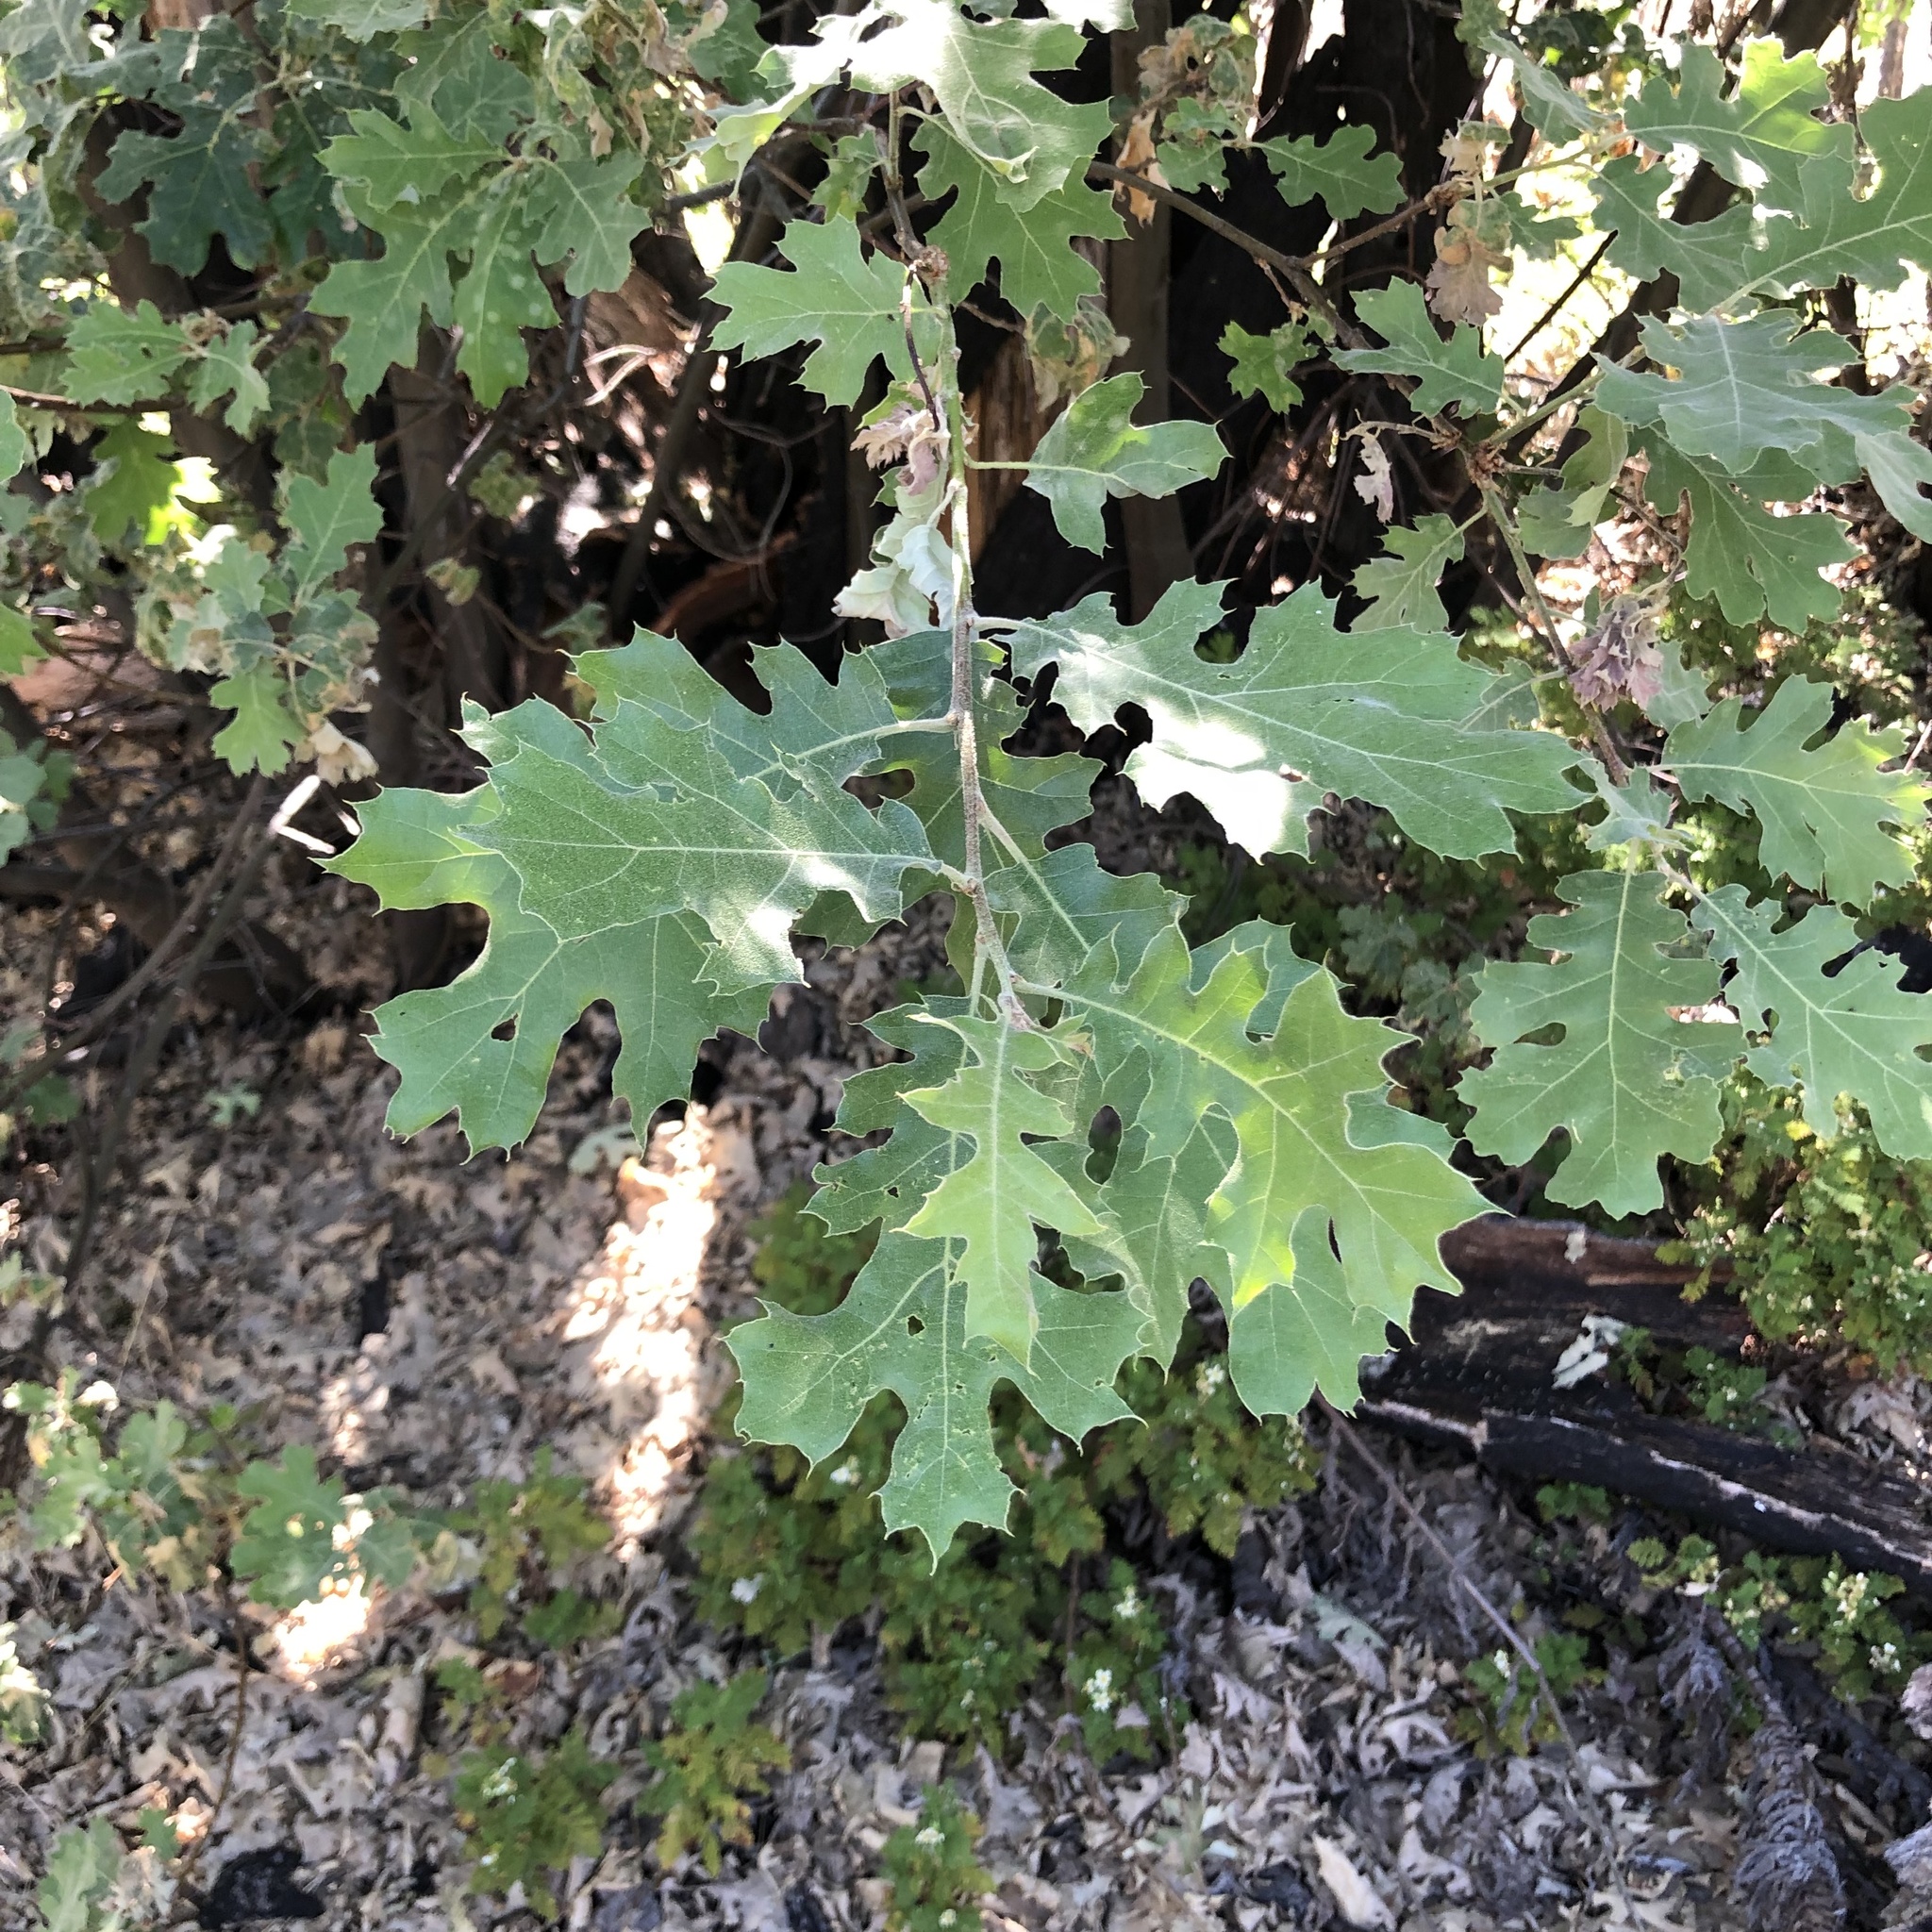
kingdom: Plantae
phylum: Tracheophyta
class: Magnoliopsida
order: Fagales
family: Fagaceae
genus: Quercus
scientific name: Quercus kelloggii
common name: California black oak
